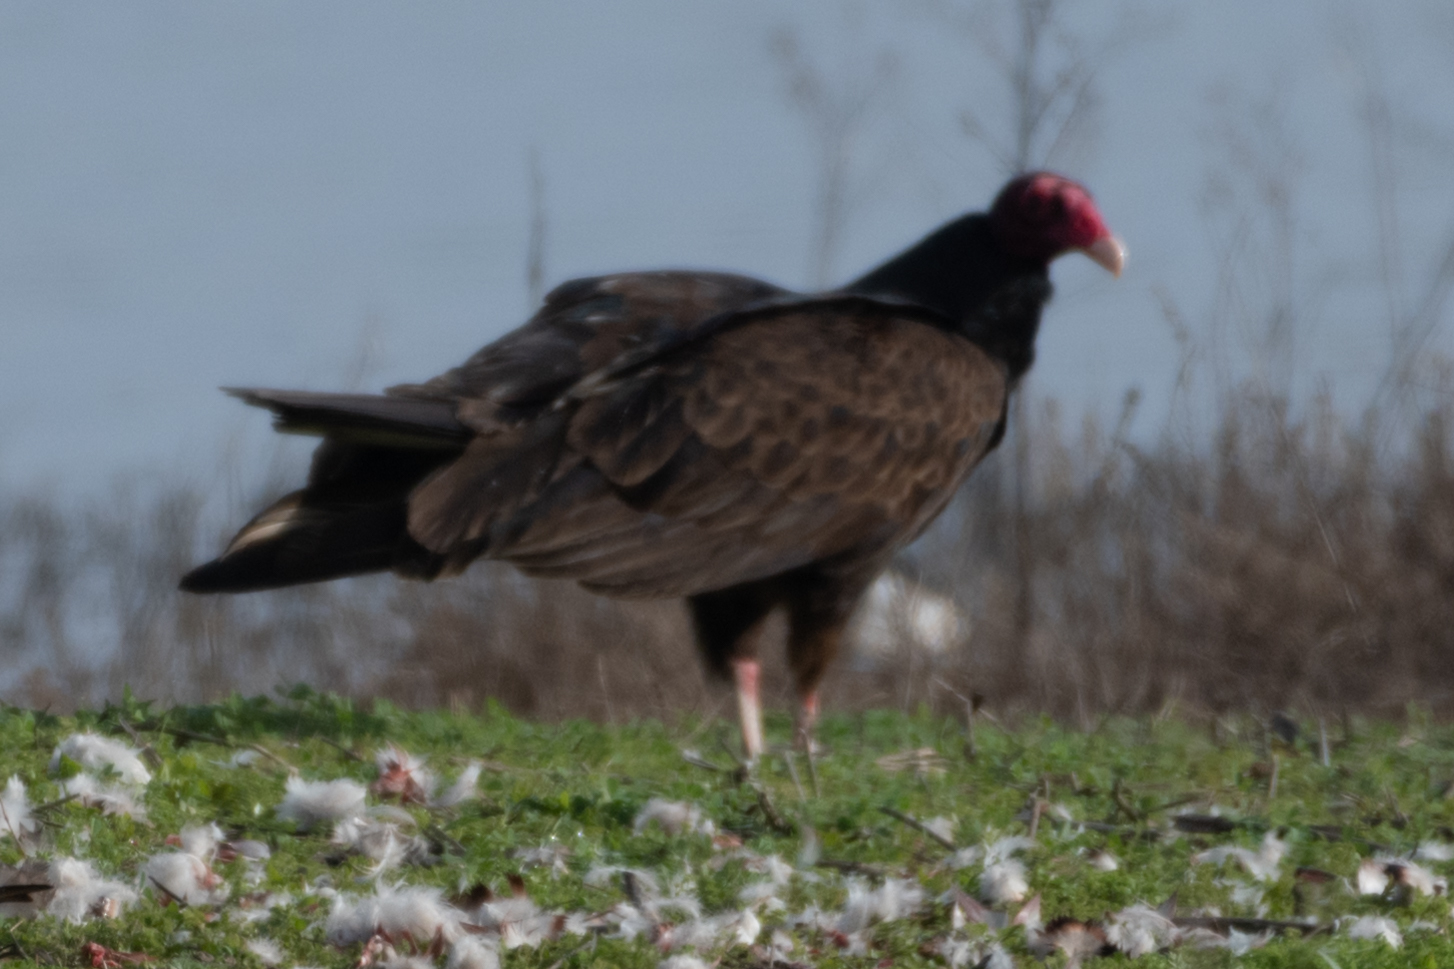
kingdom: Animalia
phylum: Chordata
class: Aves
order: Accipitriformes
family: Cathartidae
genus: Cathartes
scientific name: Cathartes aura
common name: Turkey vulture
